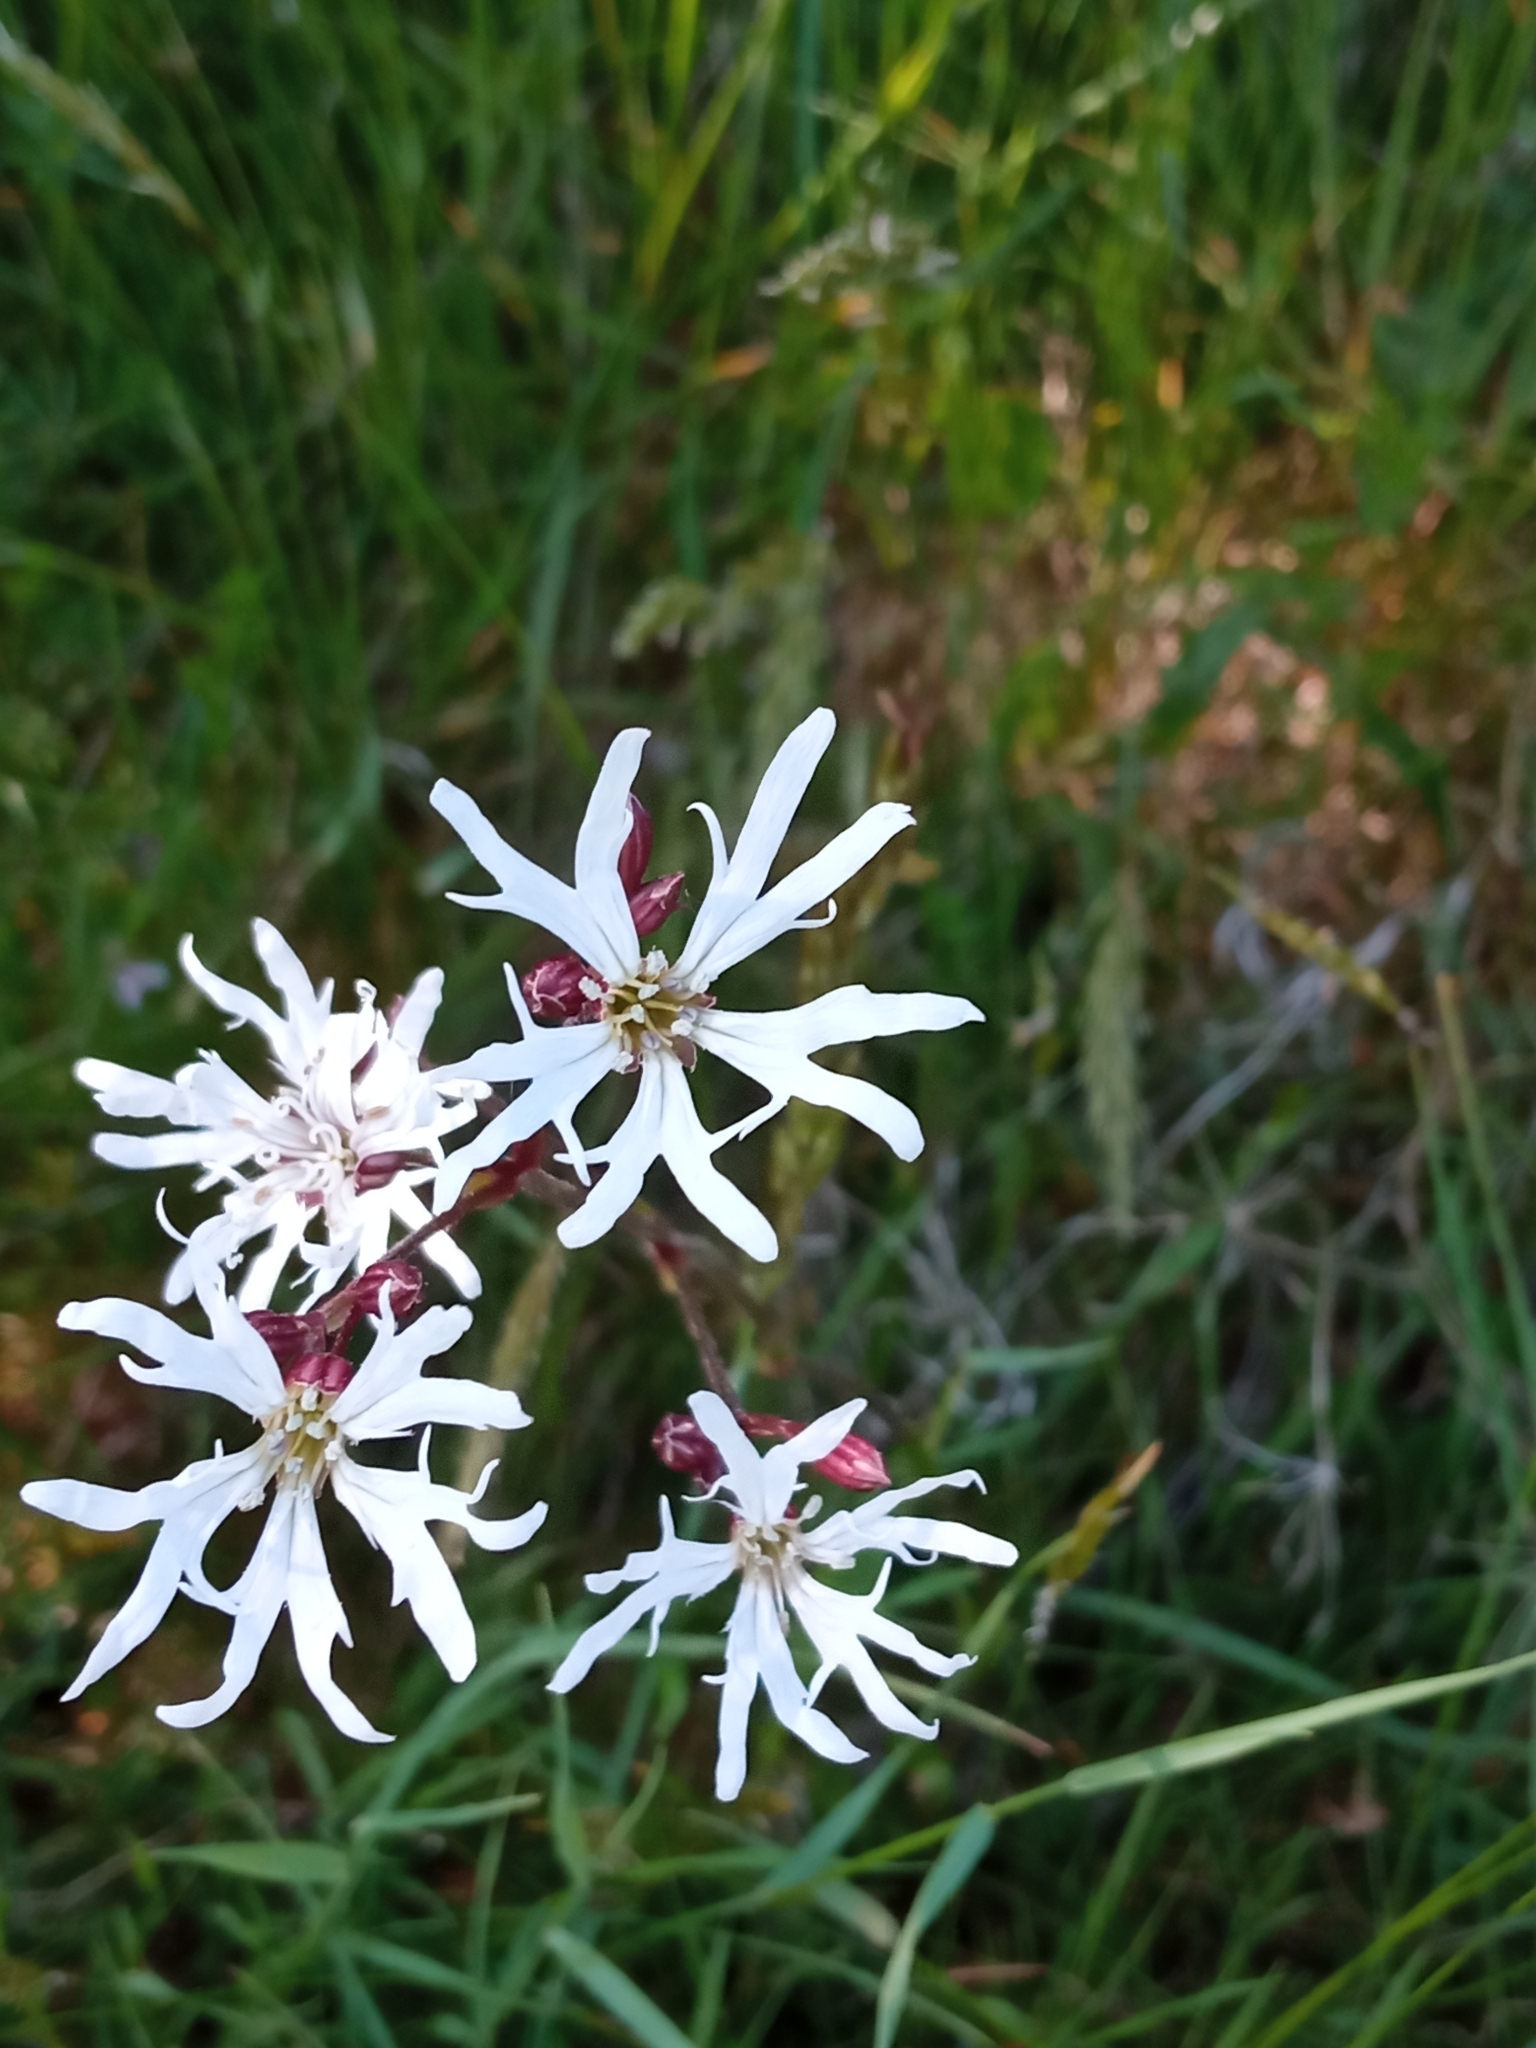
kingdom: Plantae
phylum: Tracheophyta
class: Magnoliopsida
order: Caryophyllales
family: Caryophyllaceae
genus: Silene
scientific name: Silene flos-cuculi
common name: Ragged-robin
